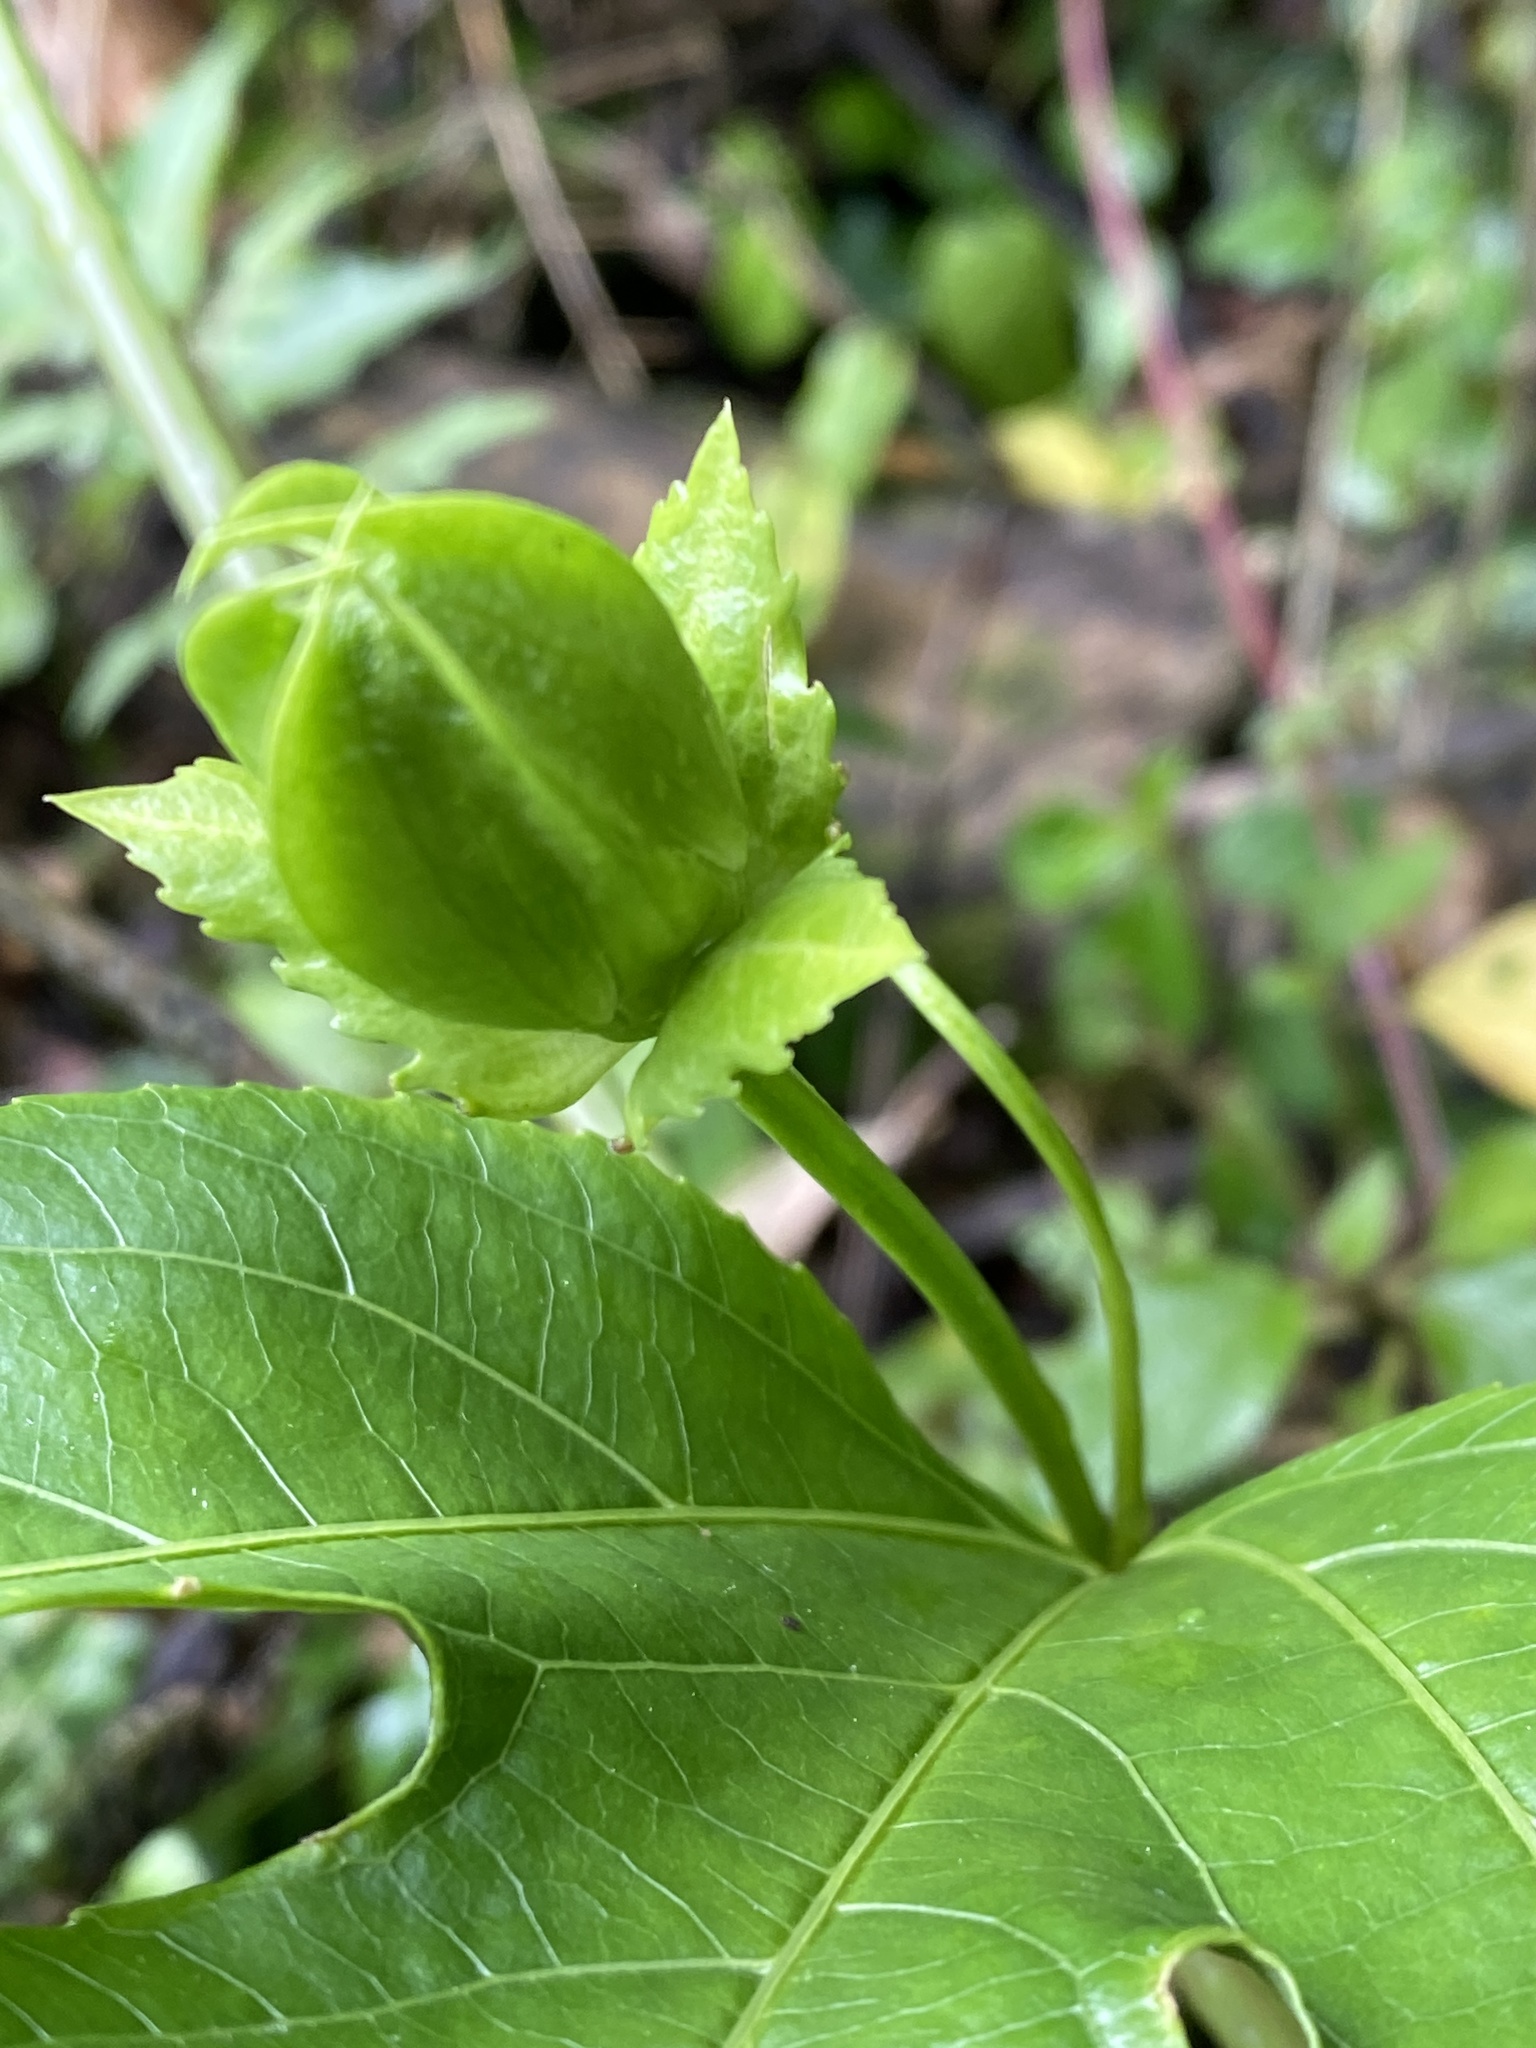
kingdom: Plantae
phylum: Tracheophyta
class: Magnoliopsida
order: Malpighiales
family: Passifloraceae
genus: Passiflora
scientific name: Passiflora edulis
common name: Purple granadilla
